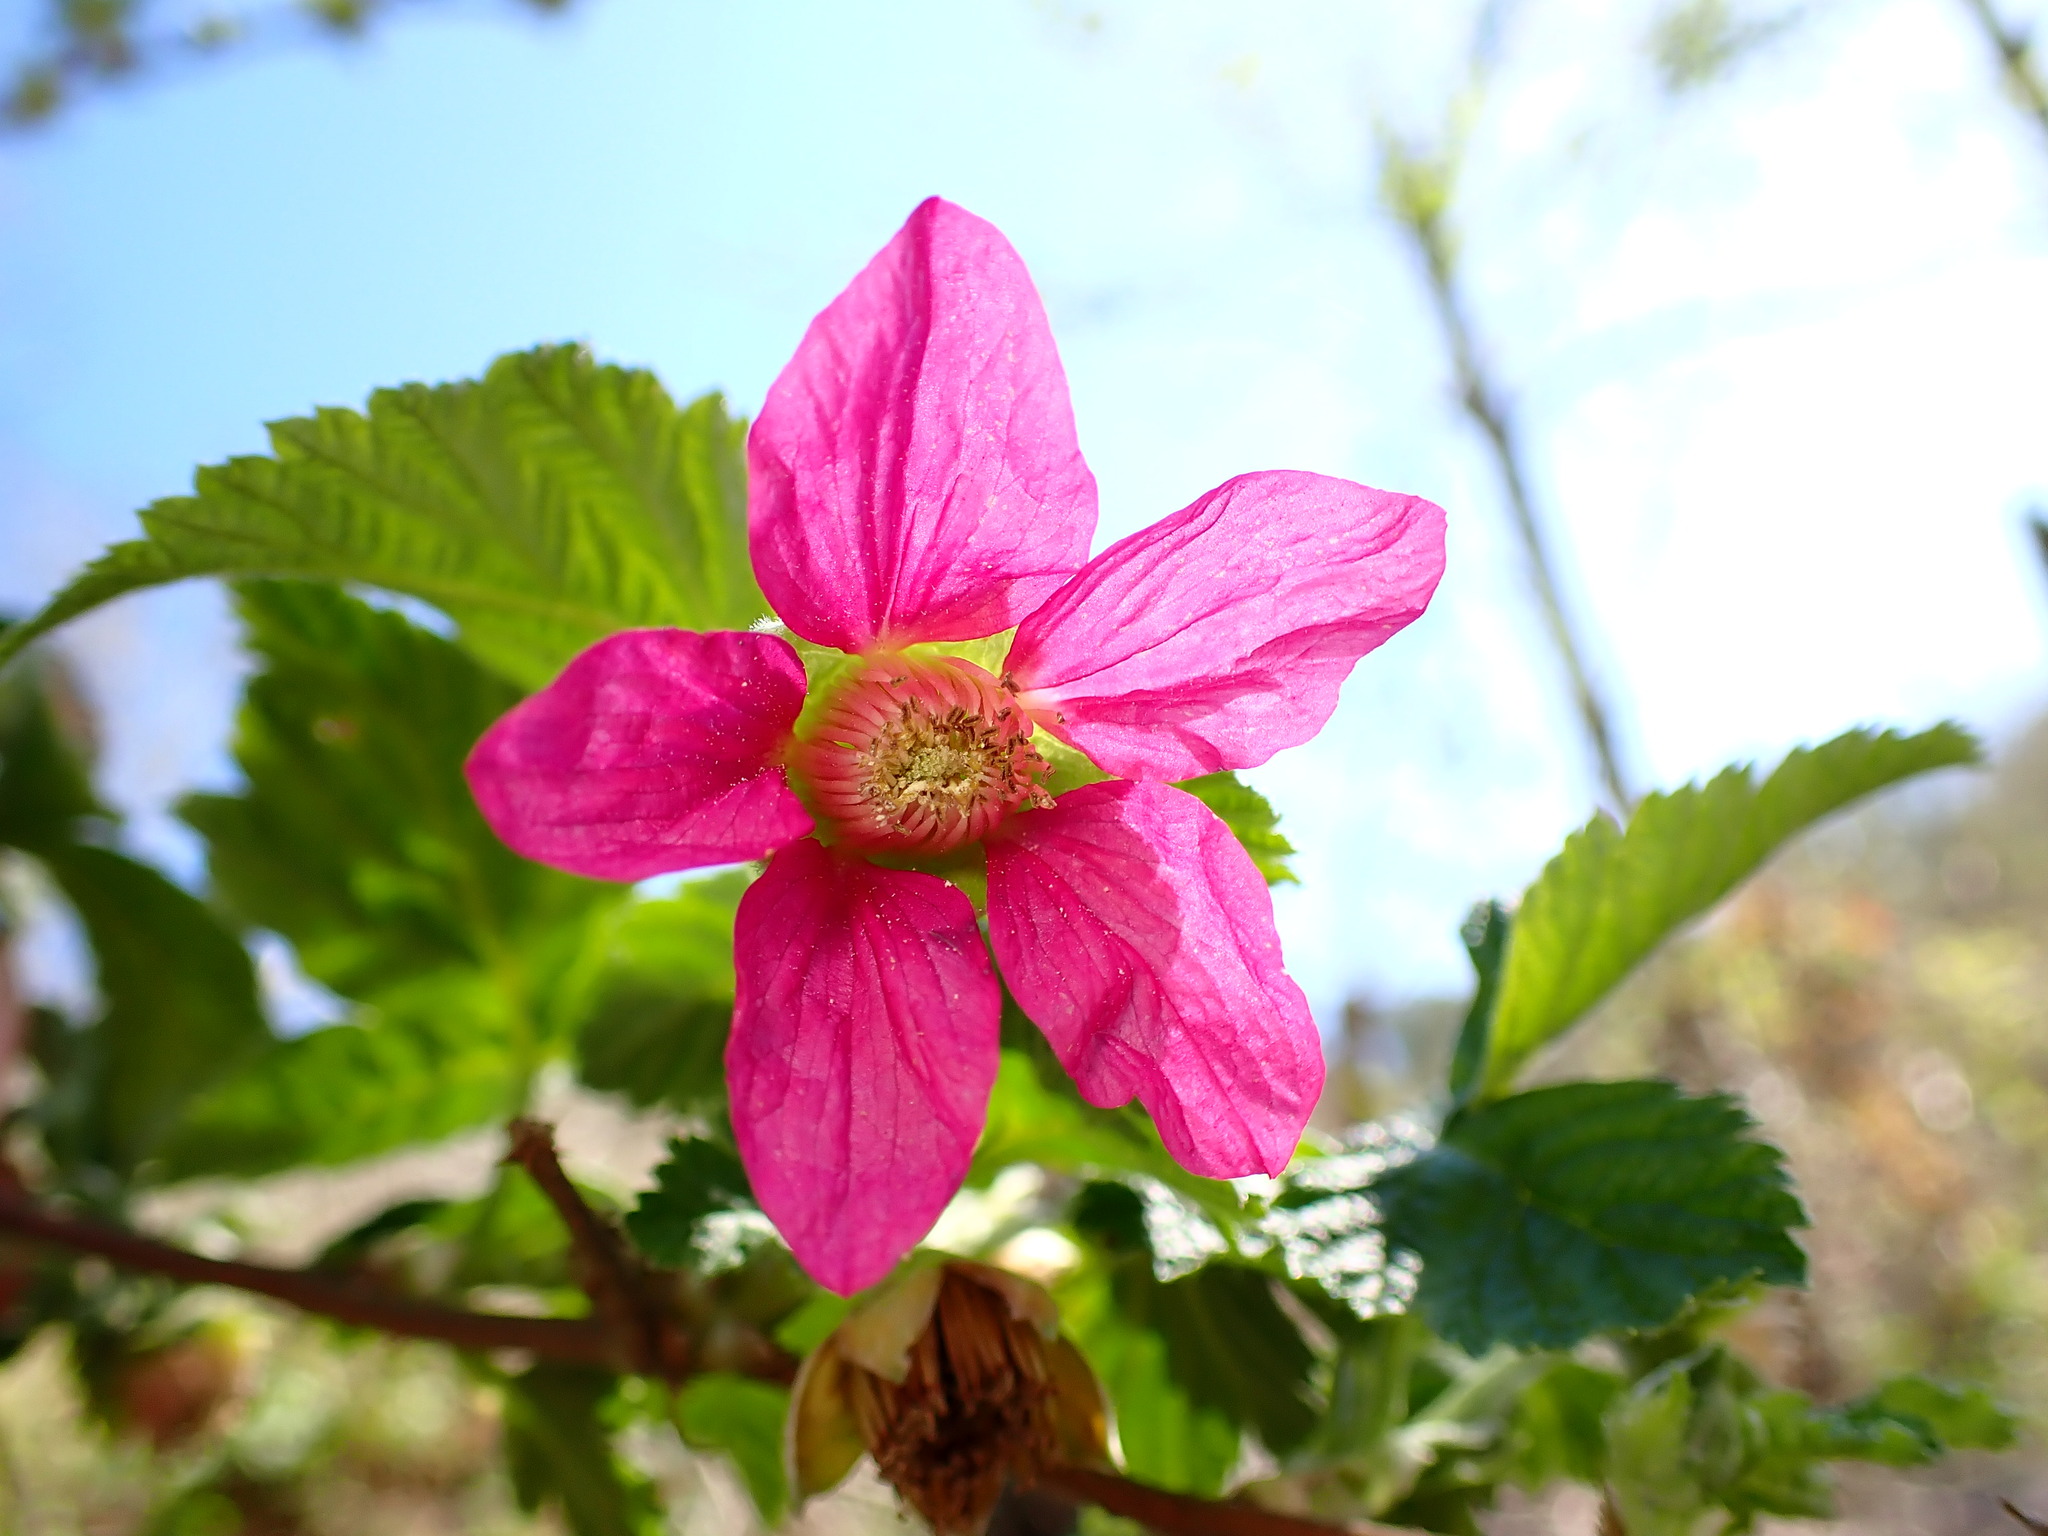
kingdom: Plantae
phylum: Tracheophyta
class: Magnoliopsida
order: Rosales
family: Rosaceae
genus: Rubus
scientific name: Rubus spectabilis
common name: Salmonberry
